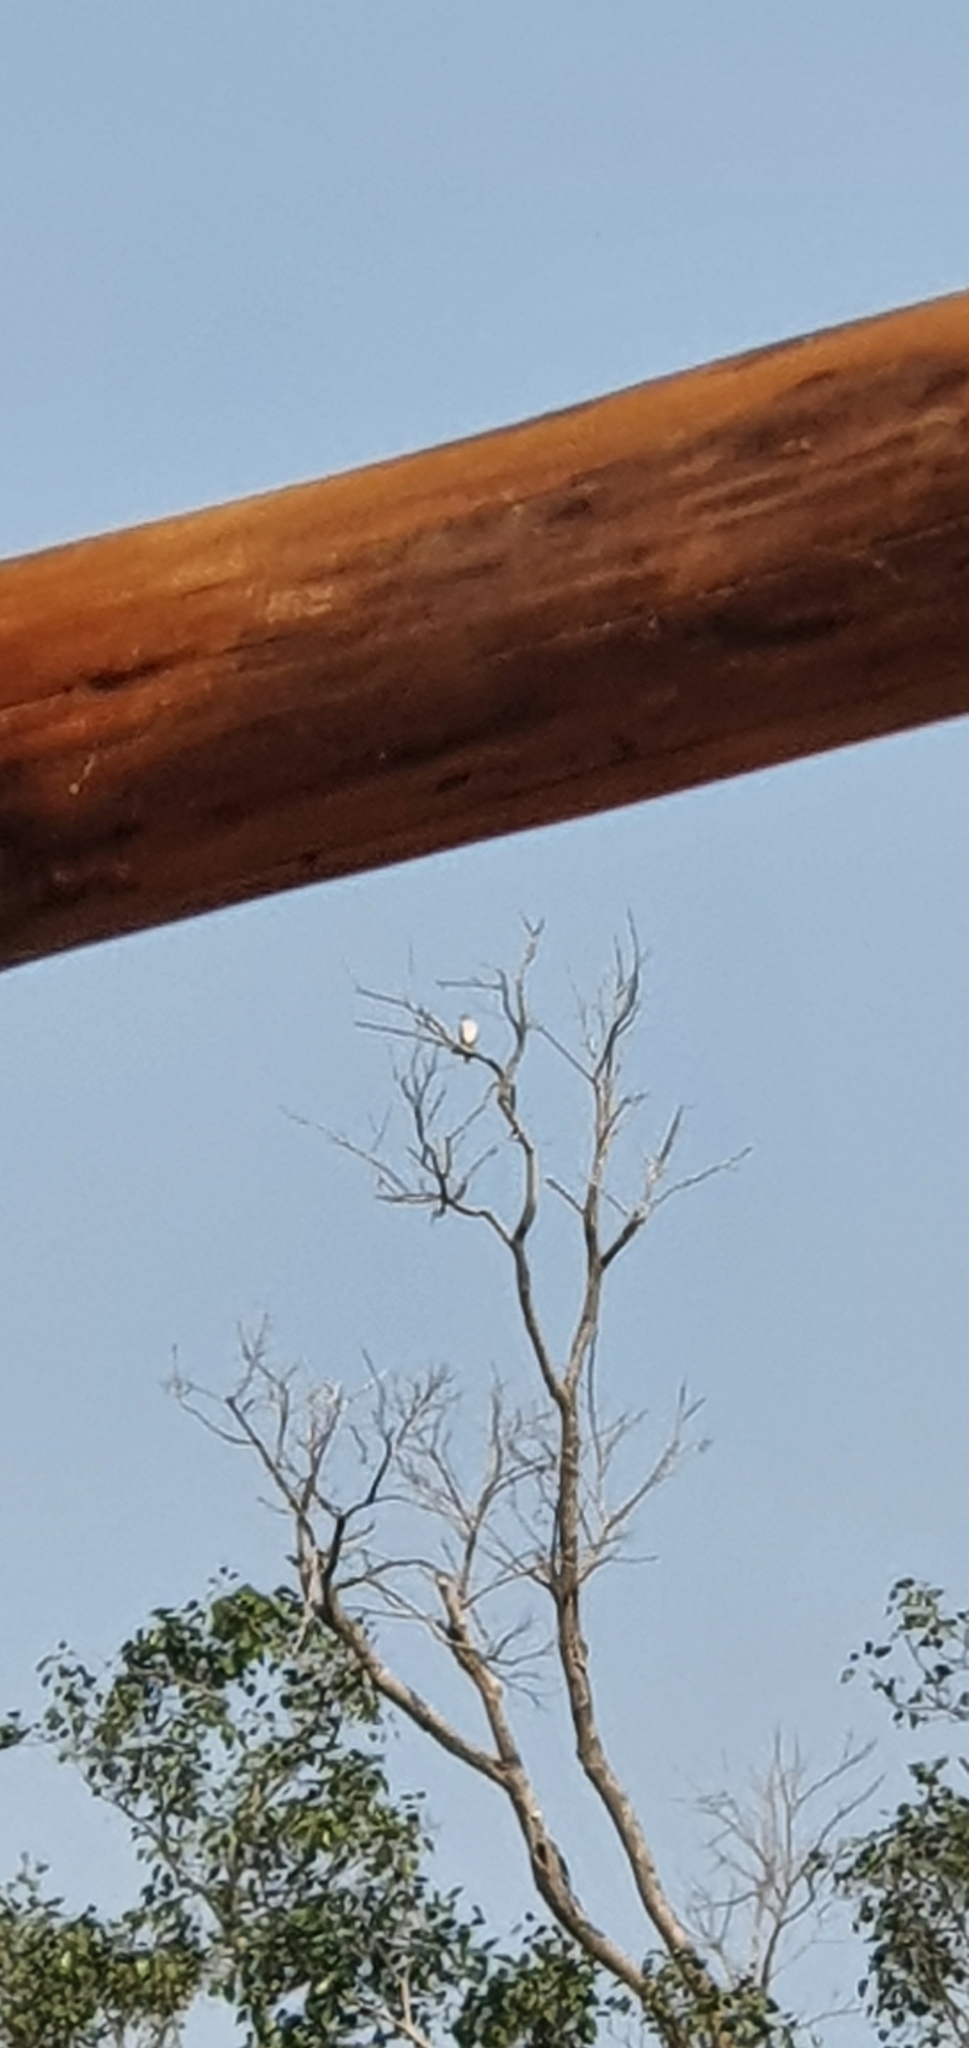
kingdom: Animalia
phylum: Chordata
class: Aves
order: Accipitriformes
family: Accipitridae
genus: Accipiter
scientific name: Accipiter badius
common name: Shikra
